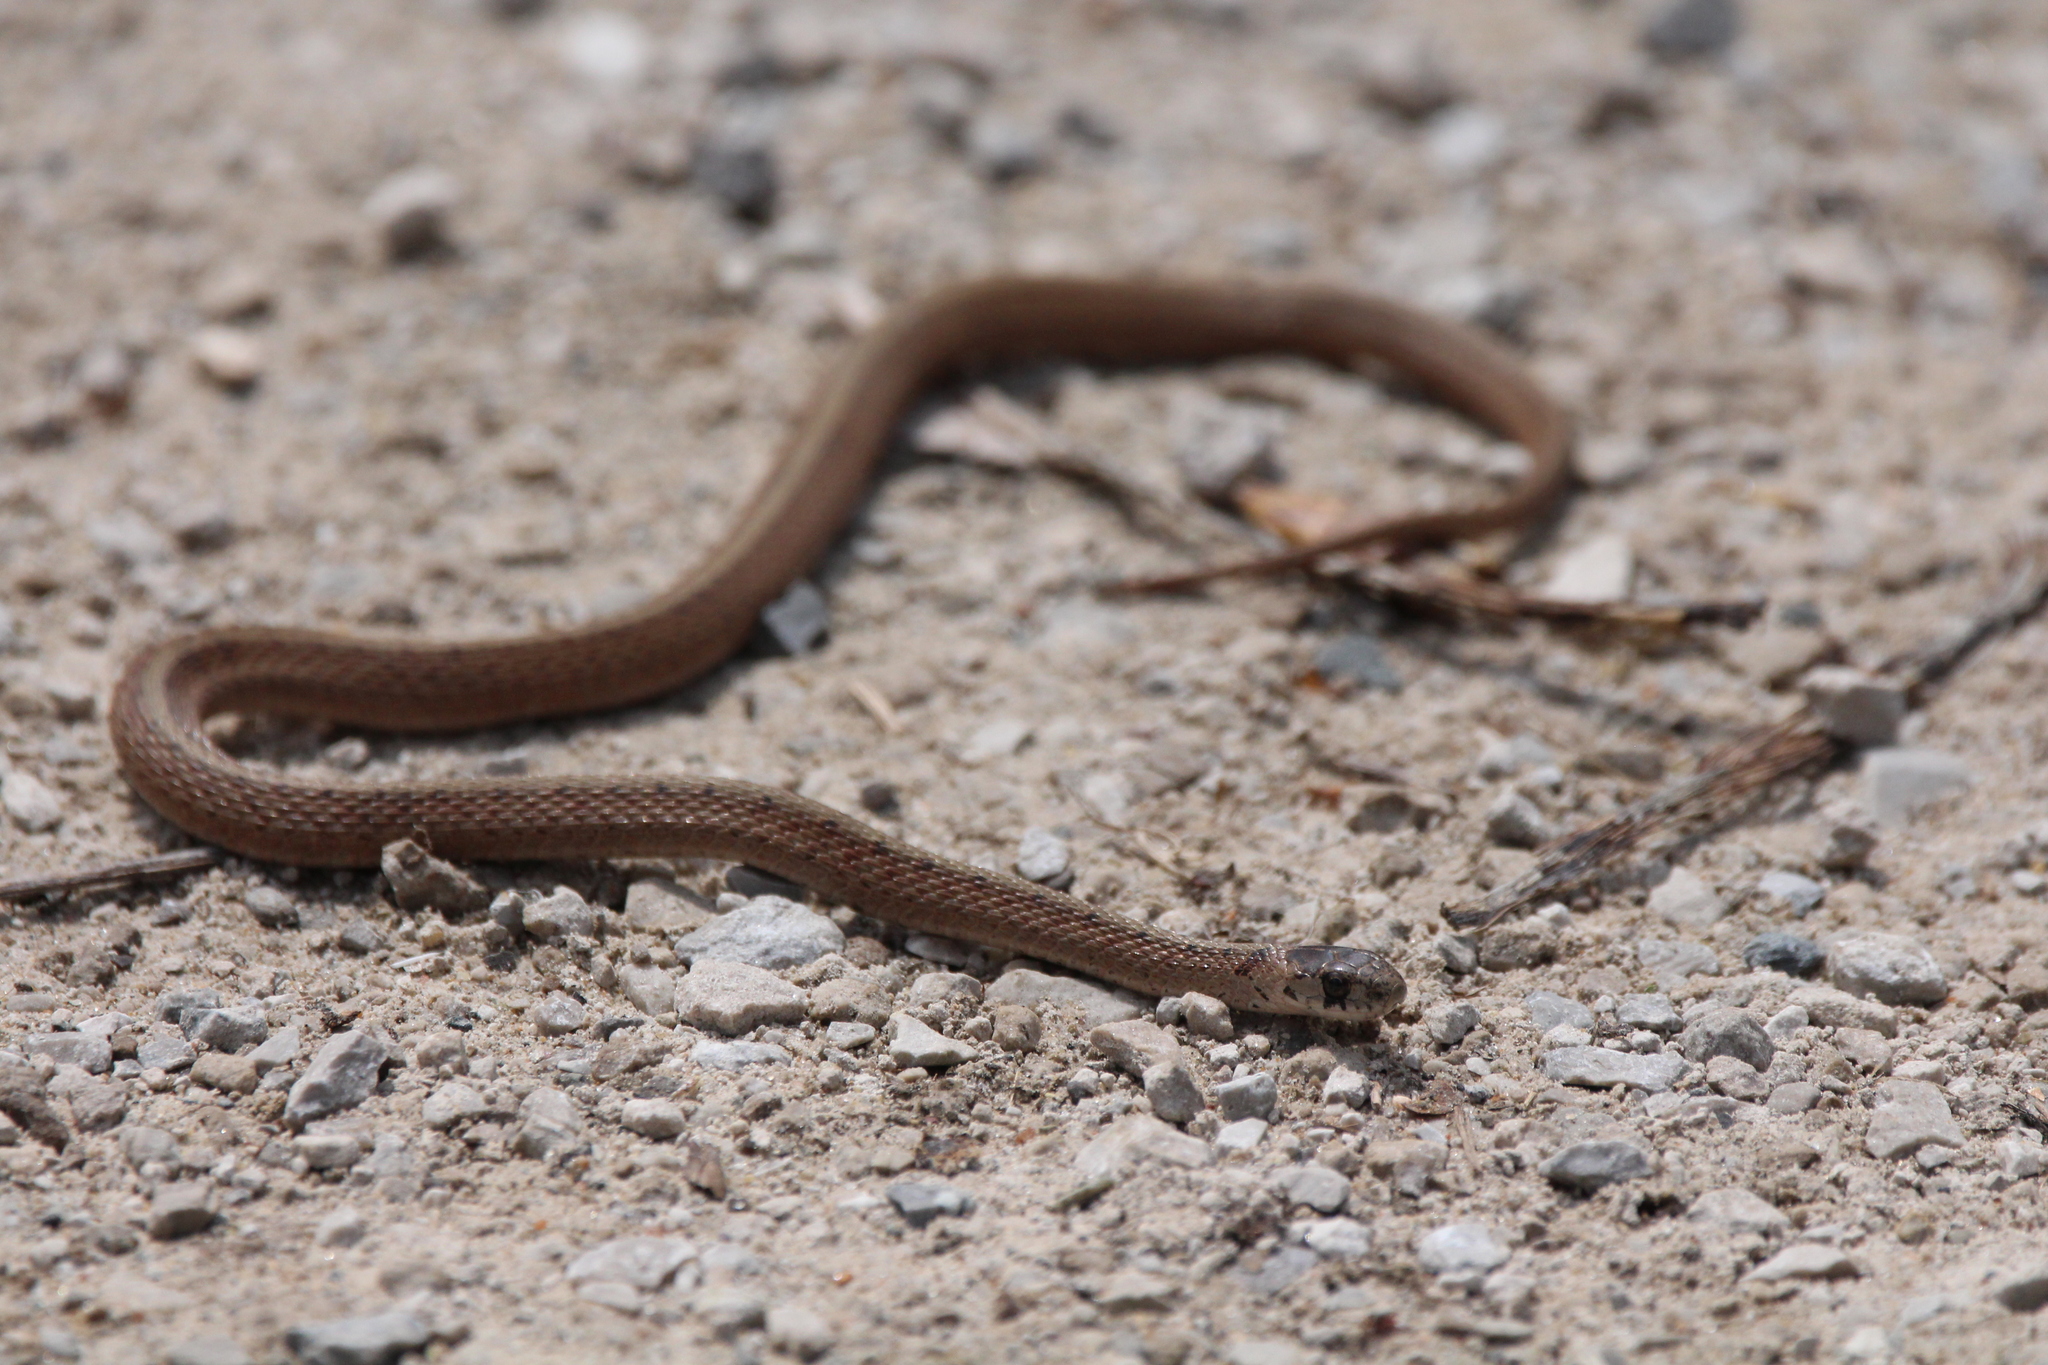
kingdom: Animalia
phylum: Chordata
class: Squamata
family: Colubridae
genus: Storeria
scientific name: Storeria dekayi
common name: (dekay’s) brown snake
